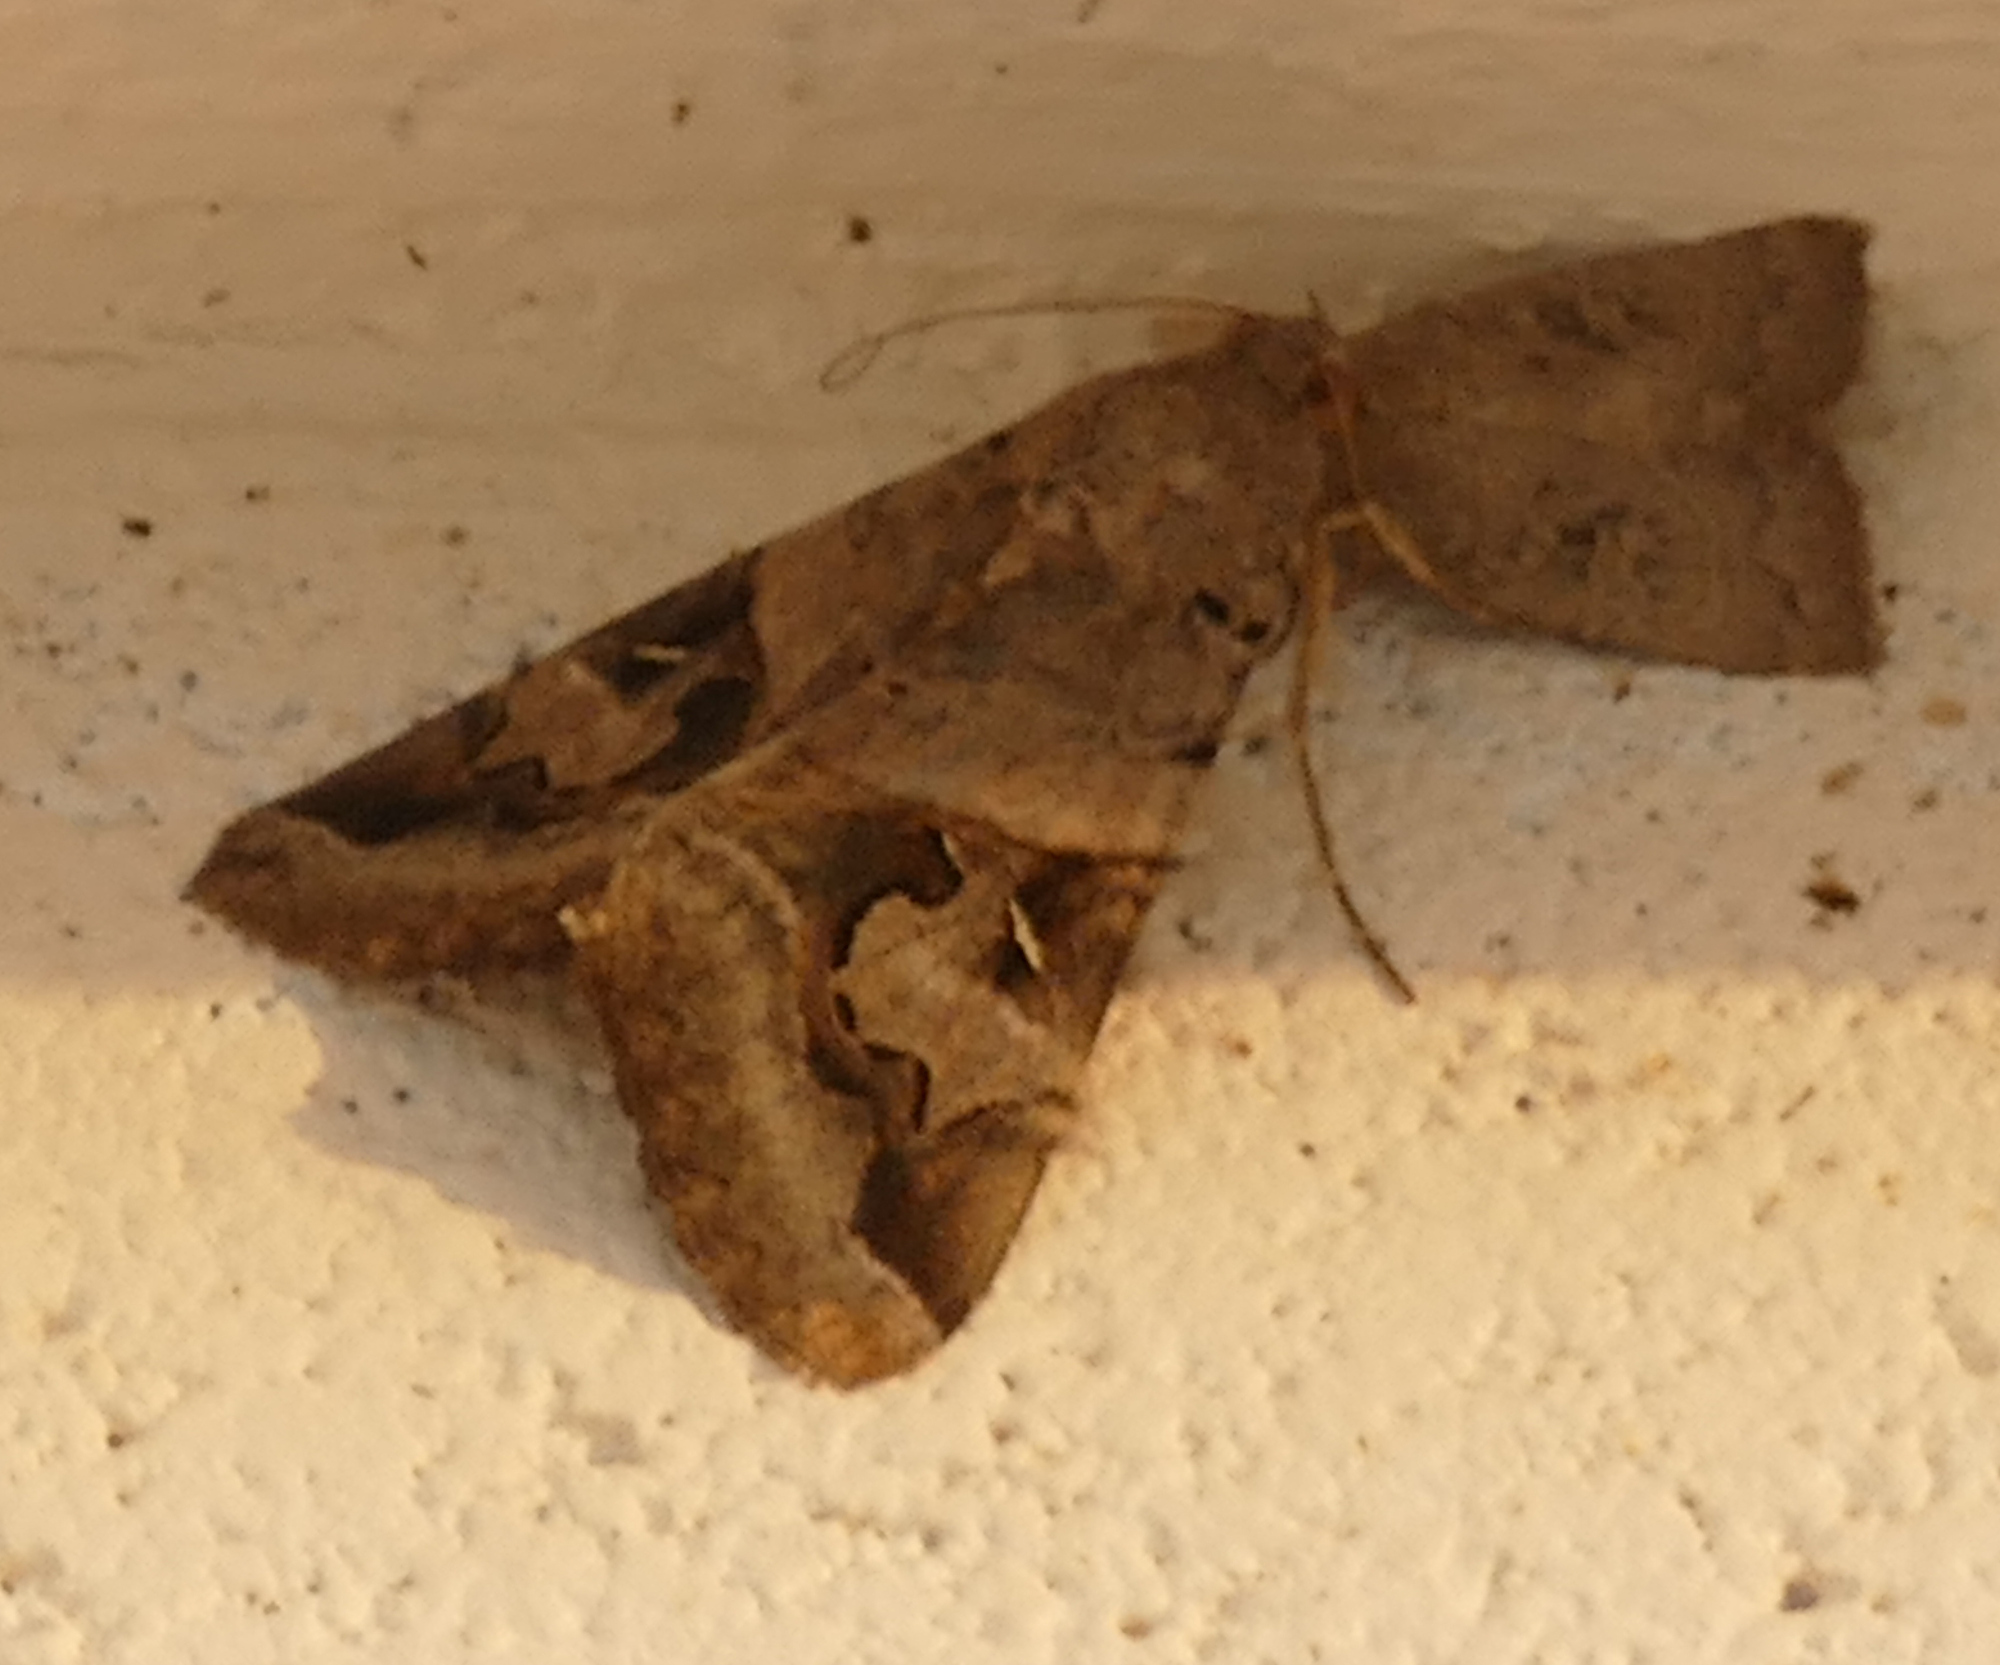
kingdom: Animalia
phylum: Arthropoda
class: Insecta
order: Lepidoptera
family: Erebidae
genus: Melipotis
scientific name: Melipotis indomita
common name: Moth
